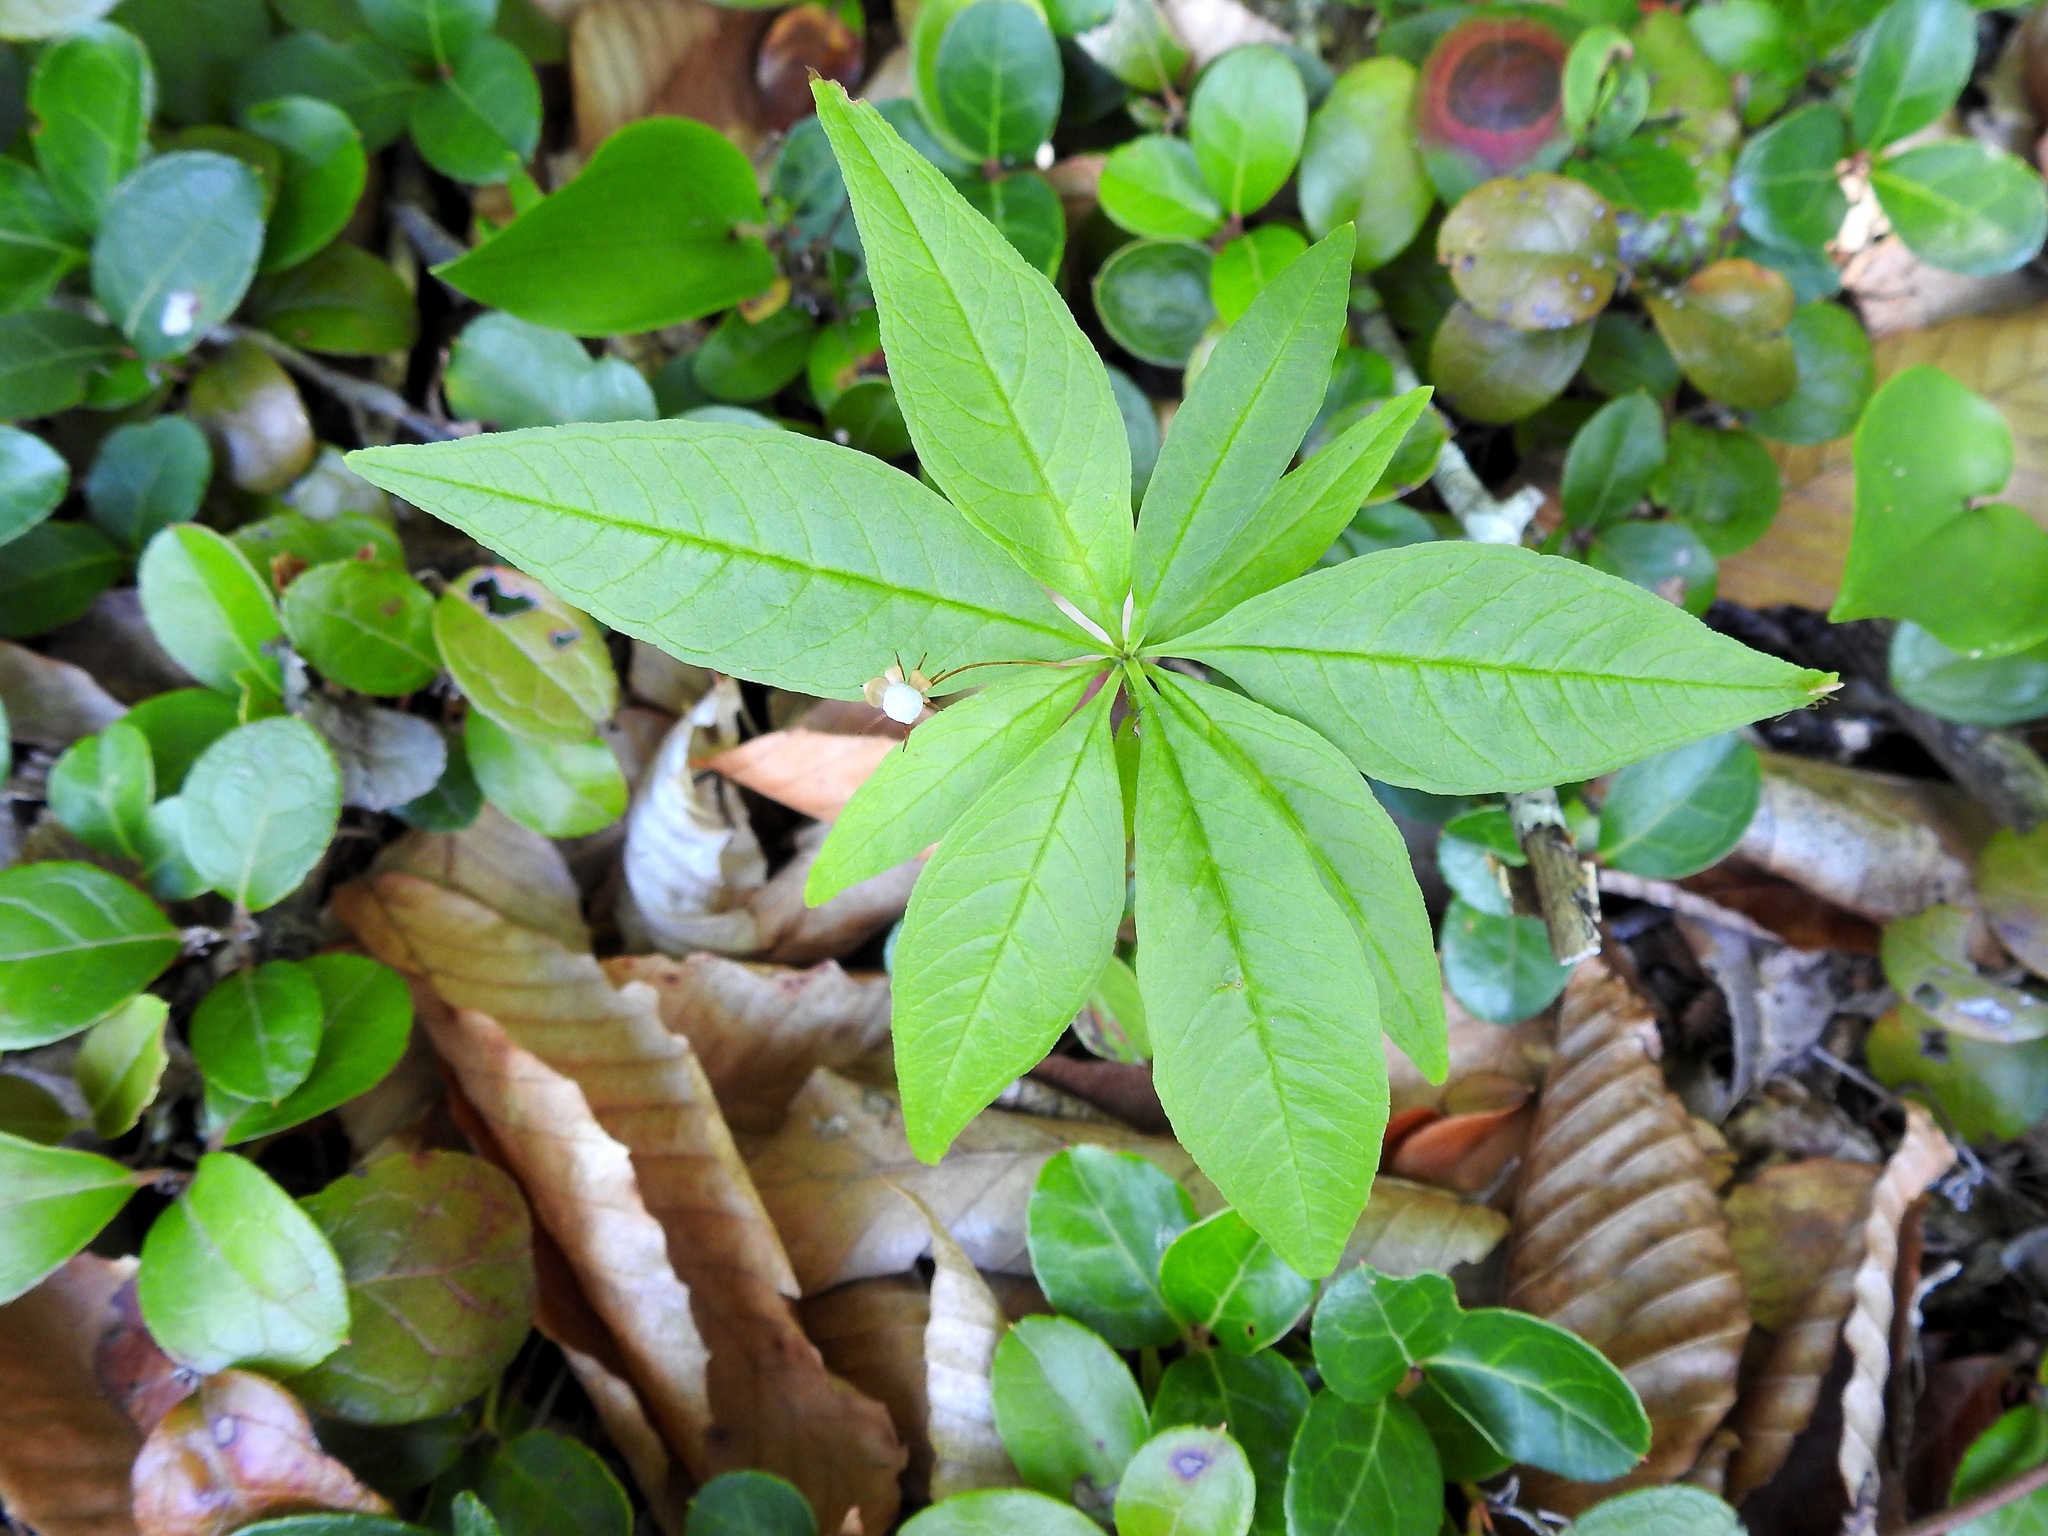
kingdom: Plantae
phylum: Tracheophyta
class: Magnoliopsida
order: Ericales
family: Primulaceae
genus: Lysimachia
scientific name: Lysimachia borealis
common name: American starflower
